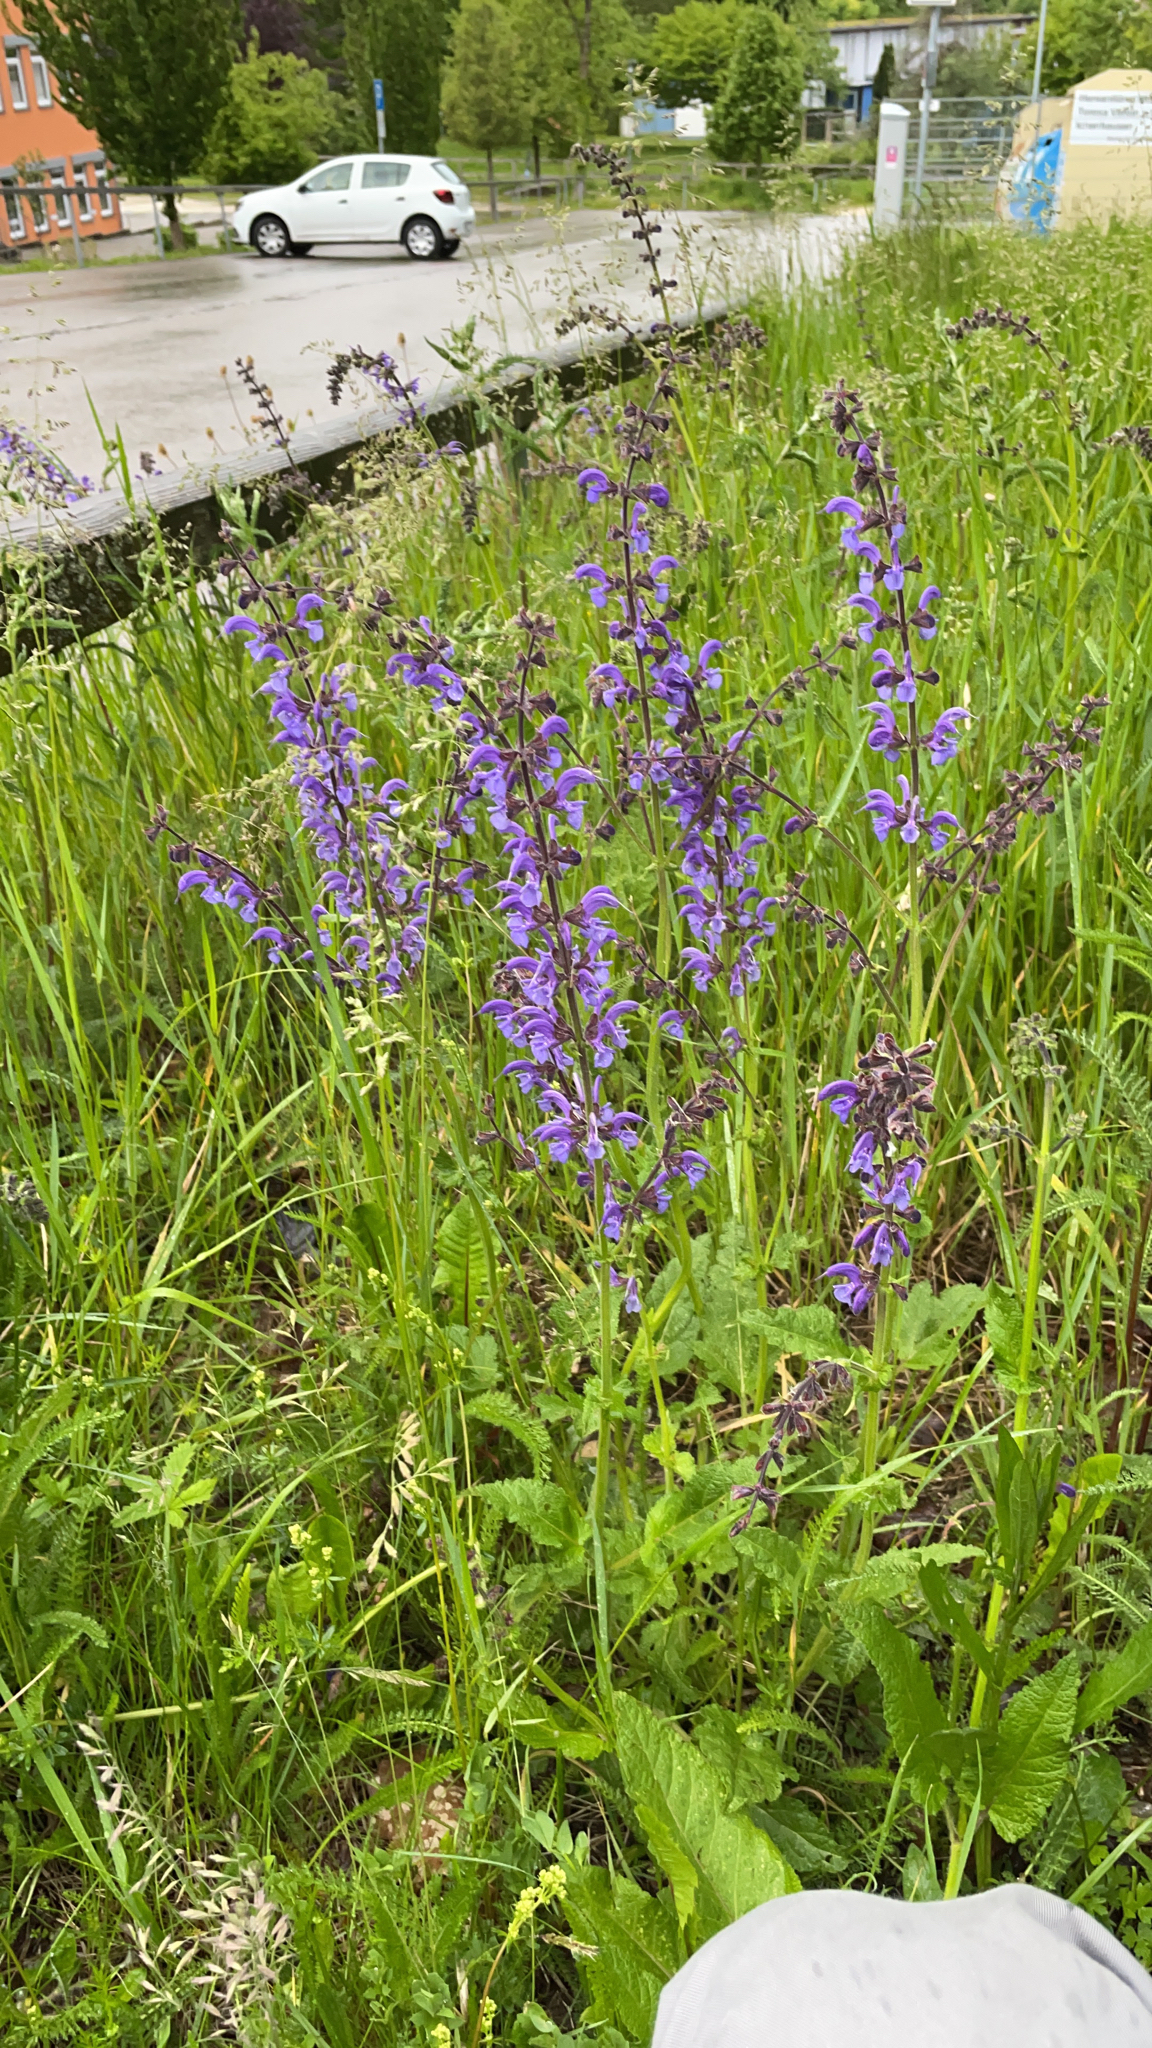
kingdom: Plantae
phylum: Tracheophyta
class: Magnoliopsida
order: Lamiales
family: Lamiaceae
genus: Salvia
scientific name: Salvia pratensis
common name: Meadow sage
